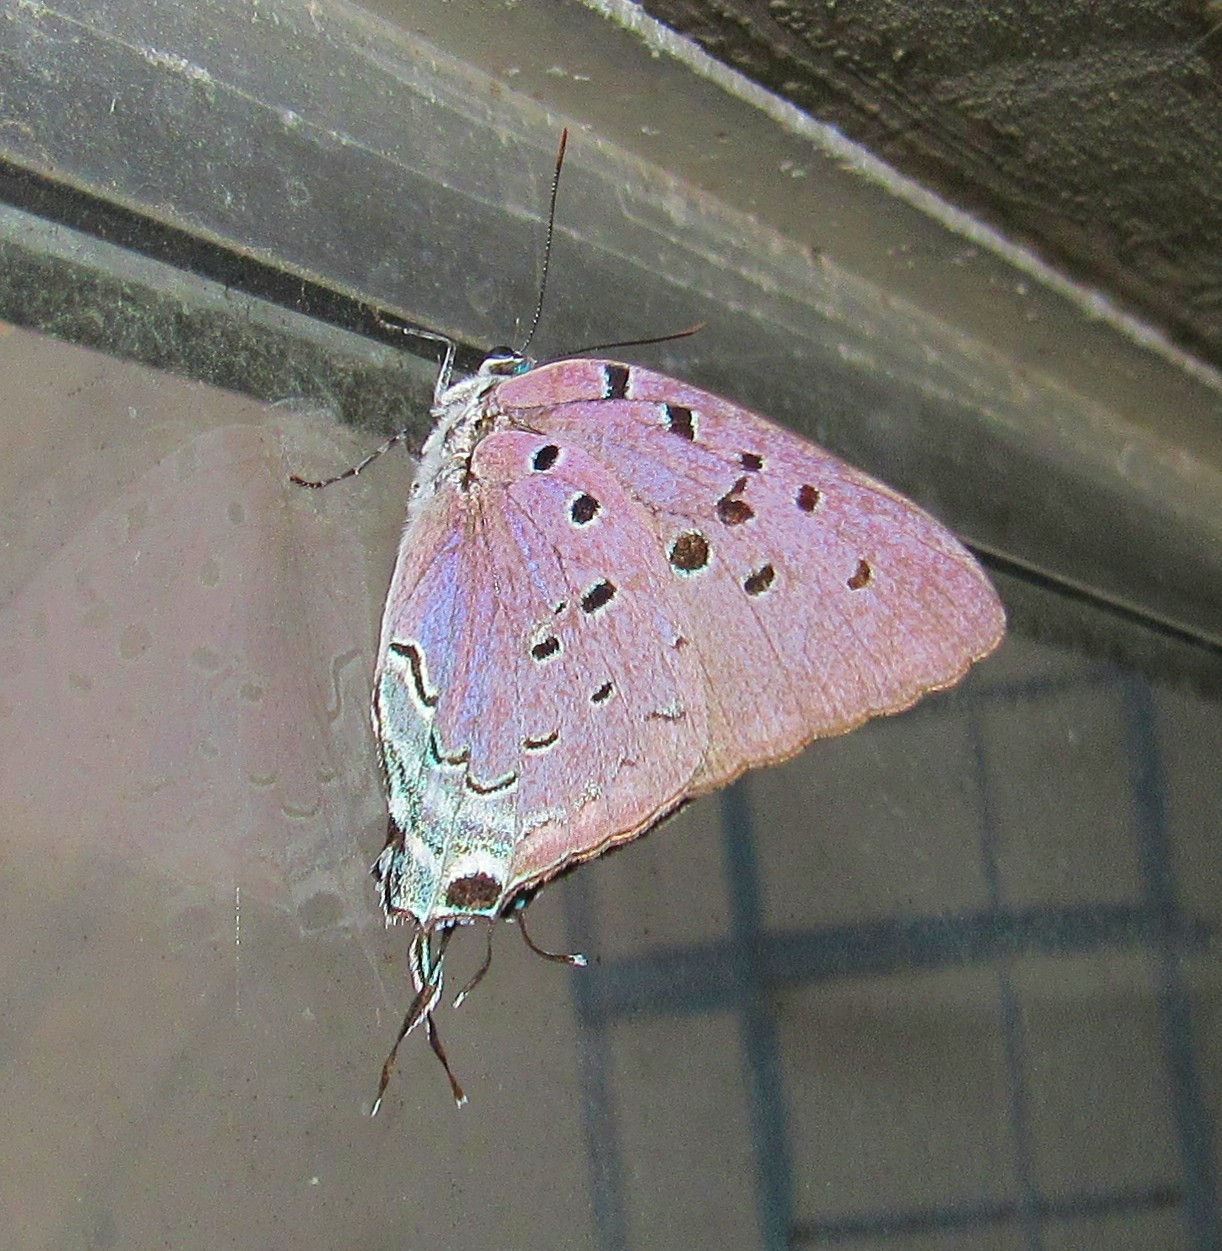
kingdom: Animalia
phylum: Arthropoda
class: Insecta
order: Lepidoptera
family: Lycaenidae
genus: Pseudolycaena
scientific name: Pseudolycaena marsyas
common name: Marsyas hairstreak
